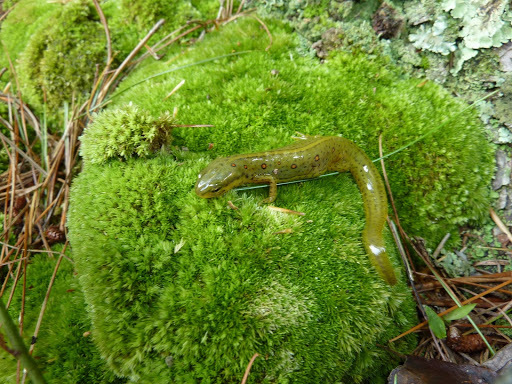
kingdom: Animalia
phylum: Chordata
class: Amphibia
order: Caudata
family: Salamandridae
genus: Notophthalmus
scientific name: Notophthalmus viridescens
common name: Eastern newt
